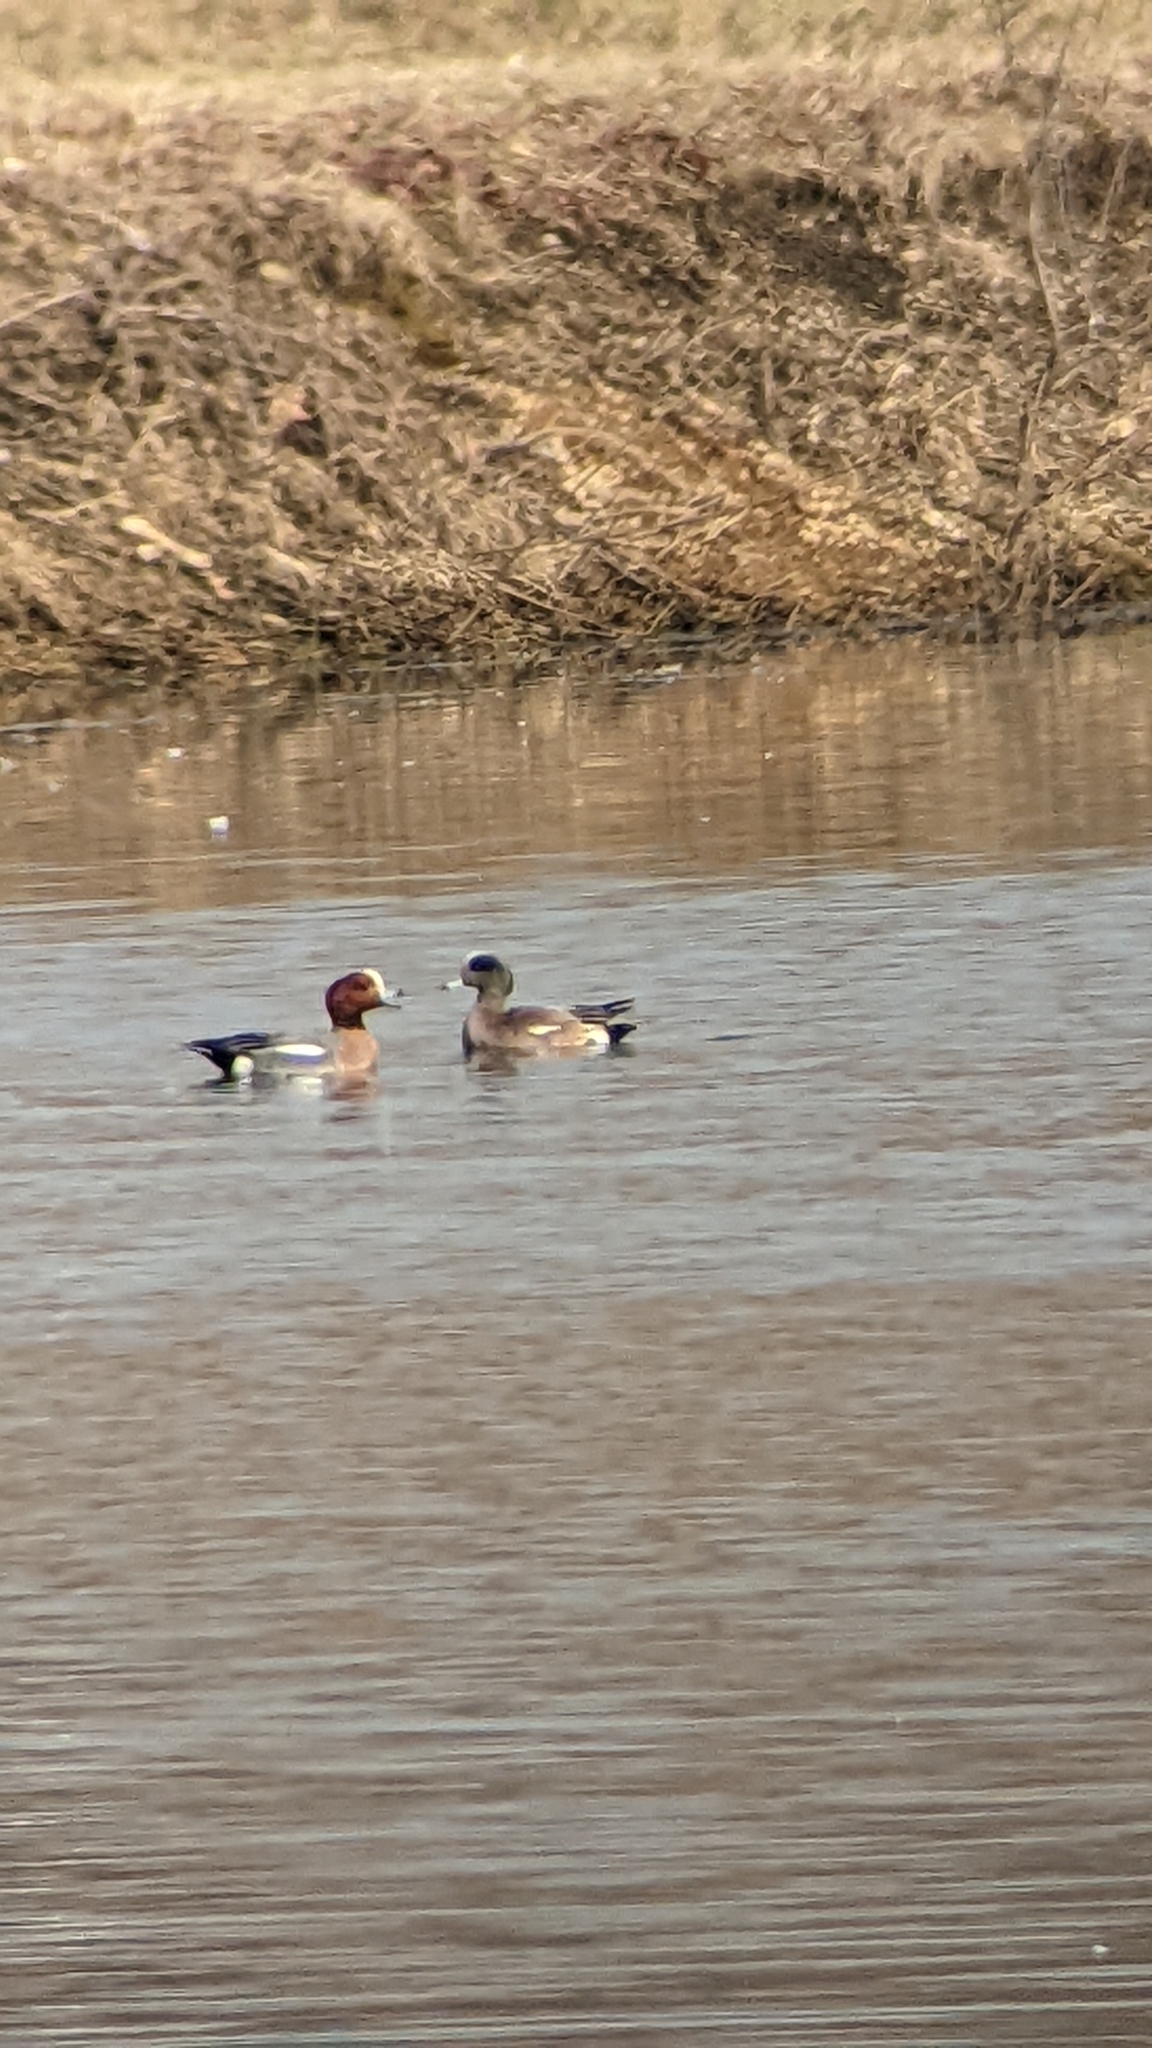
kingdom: Animalia
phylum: Chordata
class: Aves
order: Anseriformes
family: Anatidae
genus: Mareca
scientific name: Mareca penelope
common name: Eurasian wigeon
